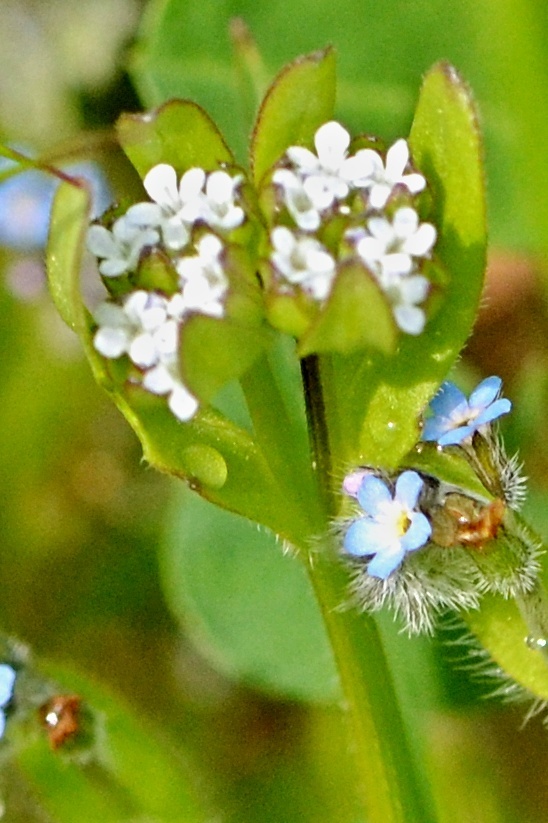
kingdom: Plantae
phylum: Tracheophyta
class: Magnoliopsida
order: Dipsacales
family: Caprifoliaceae
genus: Valerianella
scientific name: Valerianella locusta
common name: Common cornsalad
